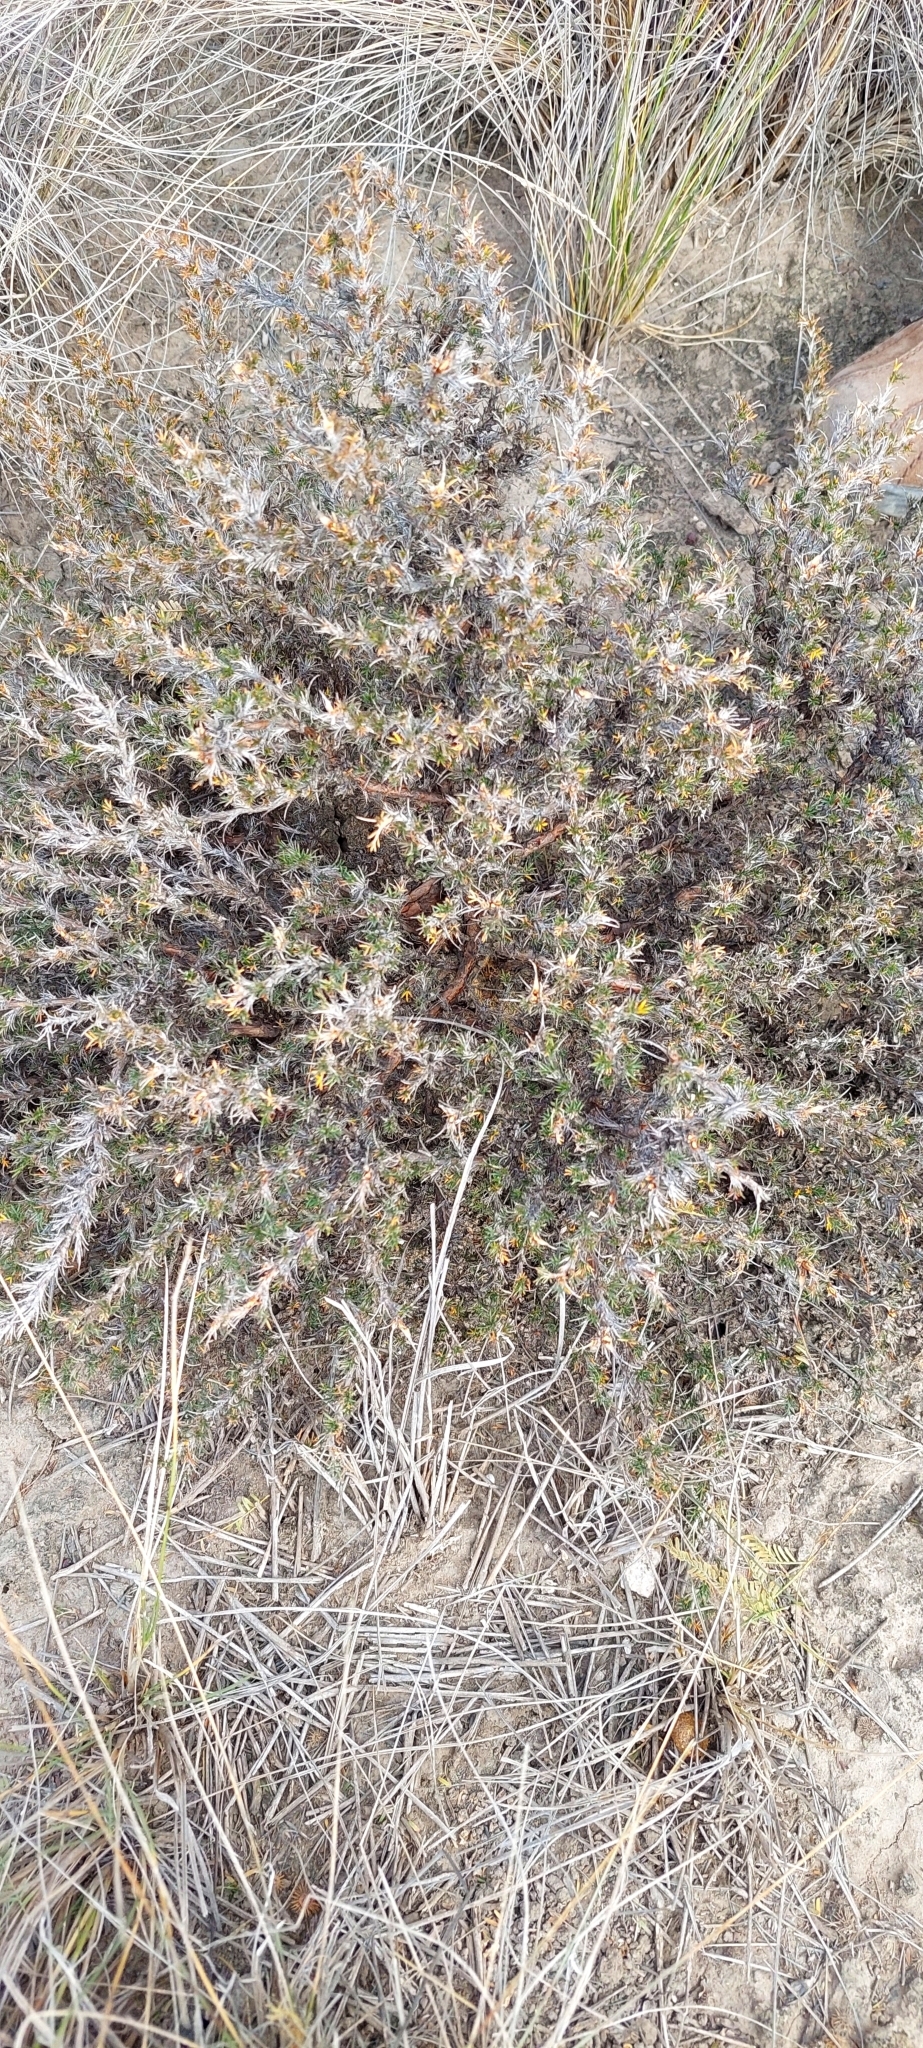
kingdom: Plantae
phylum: Tracheophyta
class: Magnoliopsida
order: Rosales
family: Rosaceae
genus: Margyricarpus
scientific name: Margyricarpus pinnatus
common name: Pearlfruit
